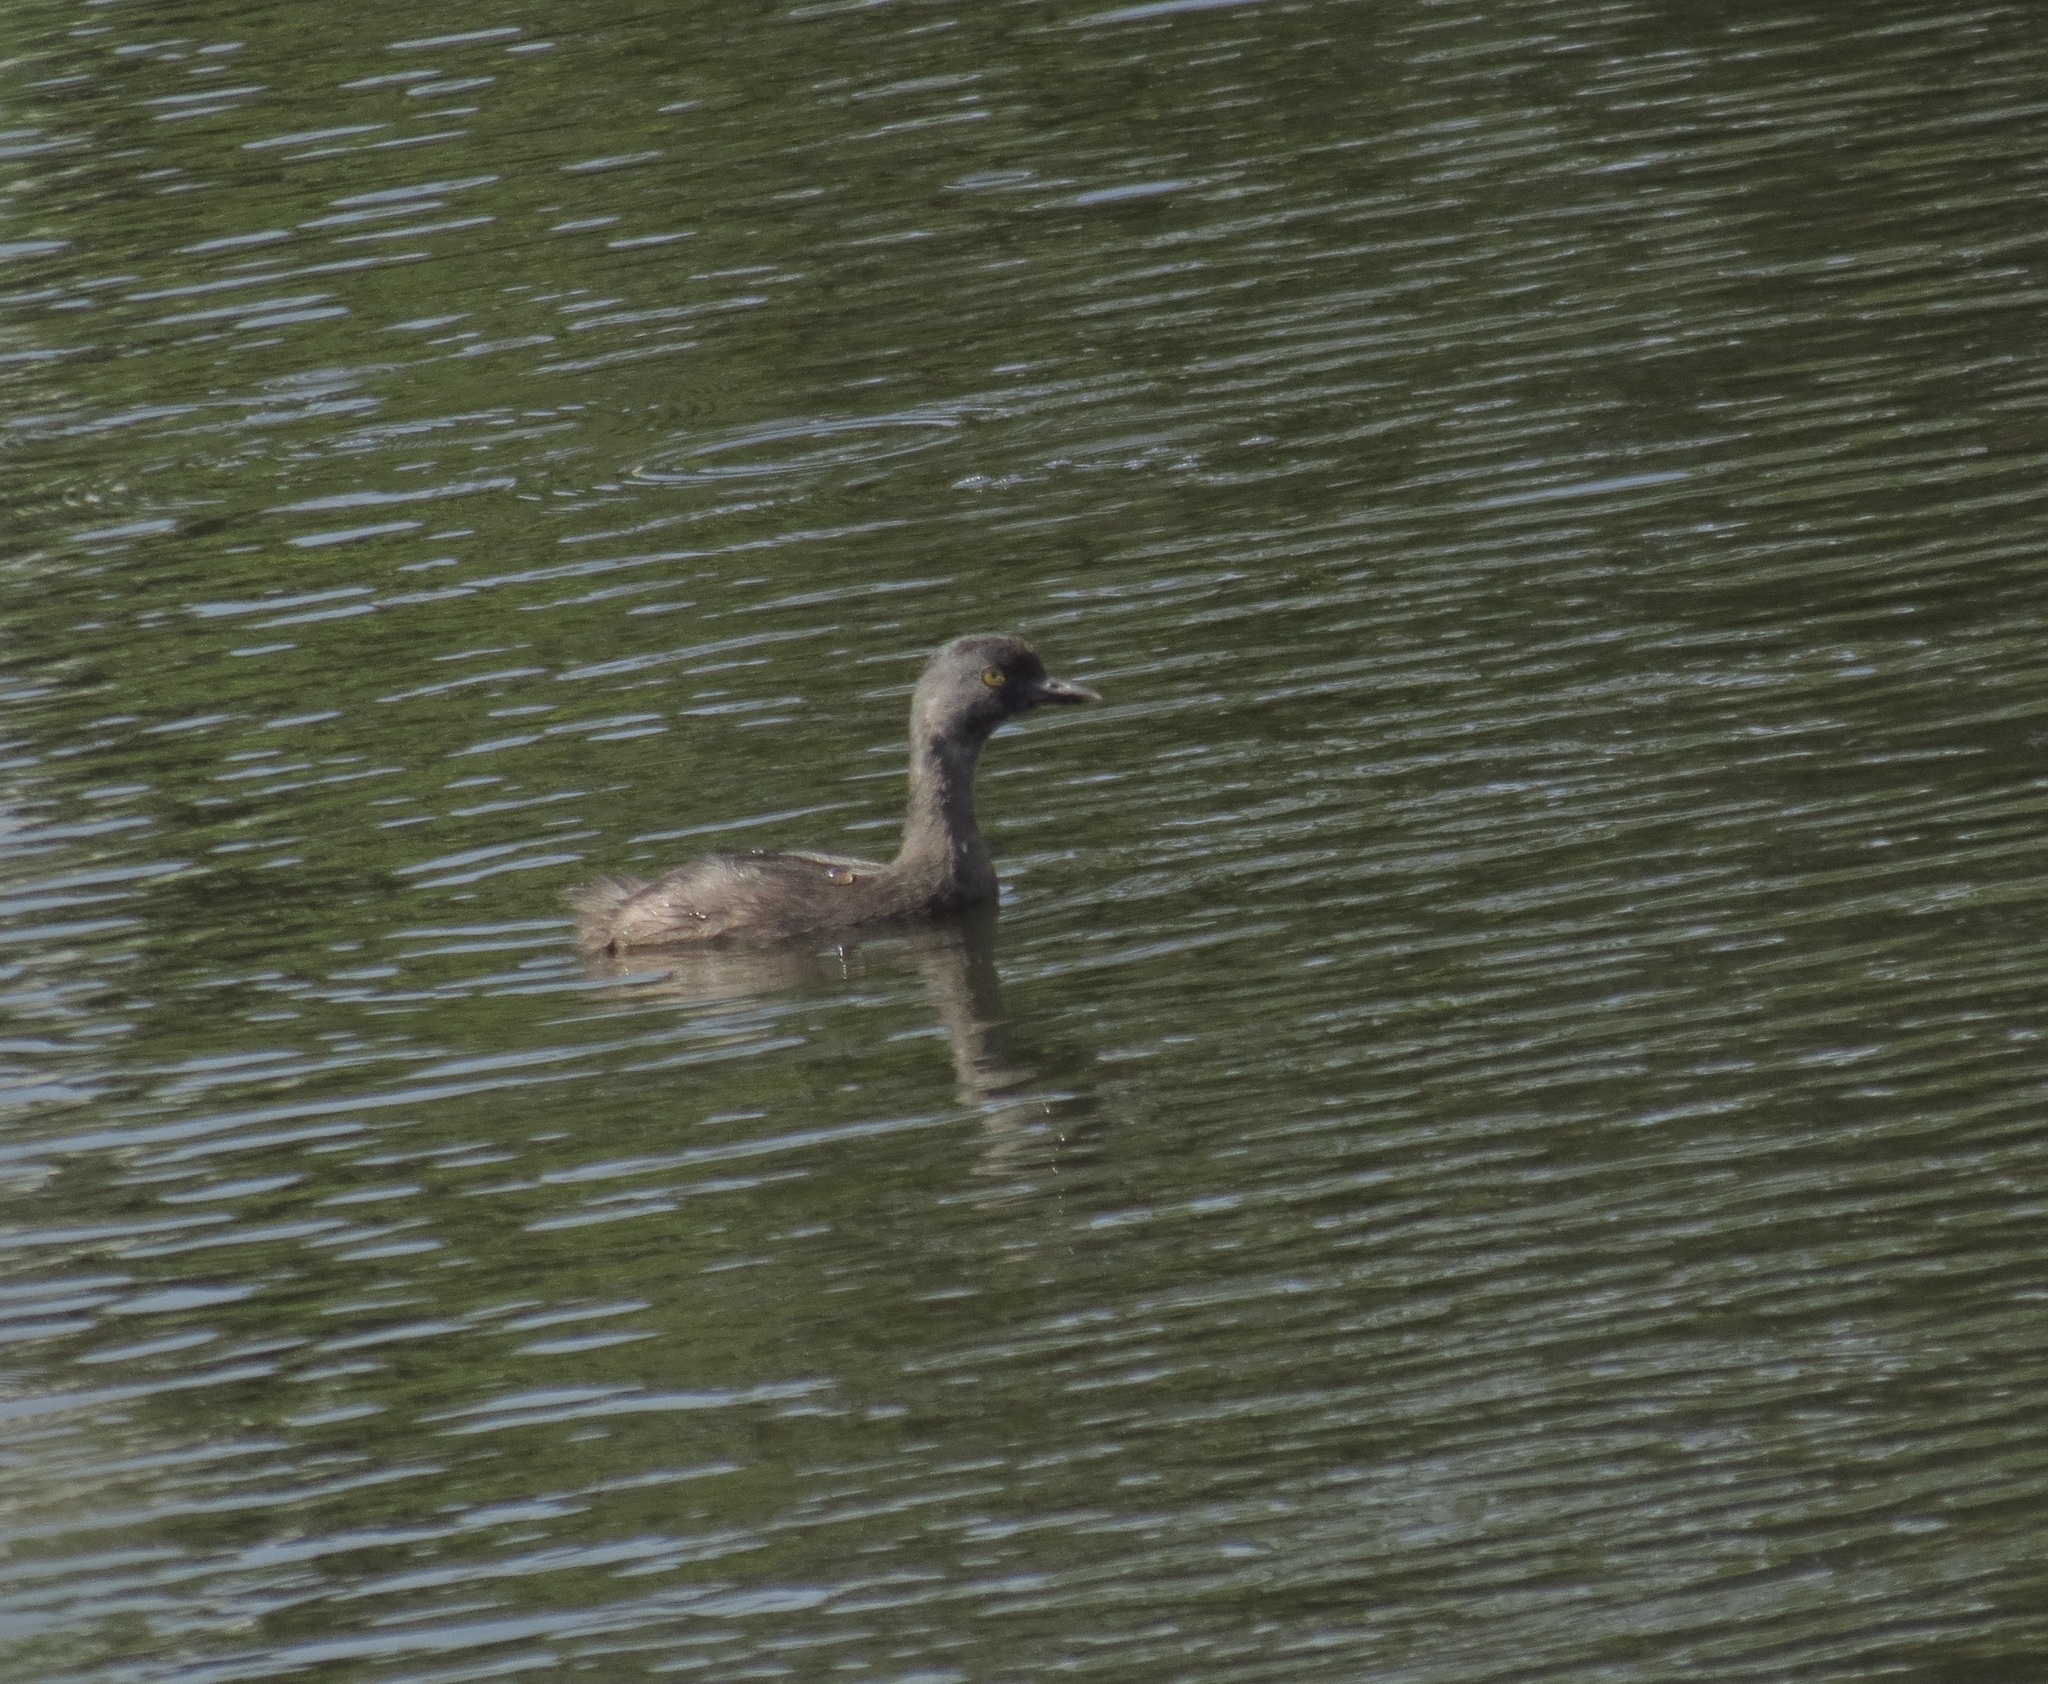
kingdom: Animalia
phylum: Chordata
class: Aves
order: Podicipediformes
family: Podicipedidae
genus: Tachybaptus
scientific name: Tachybaptus dominicus
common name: Least grebe
